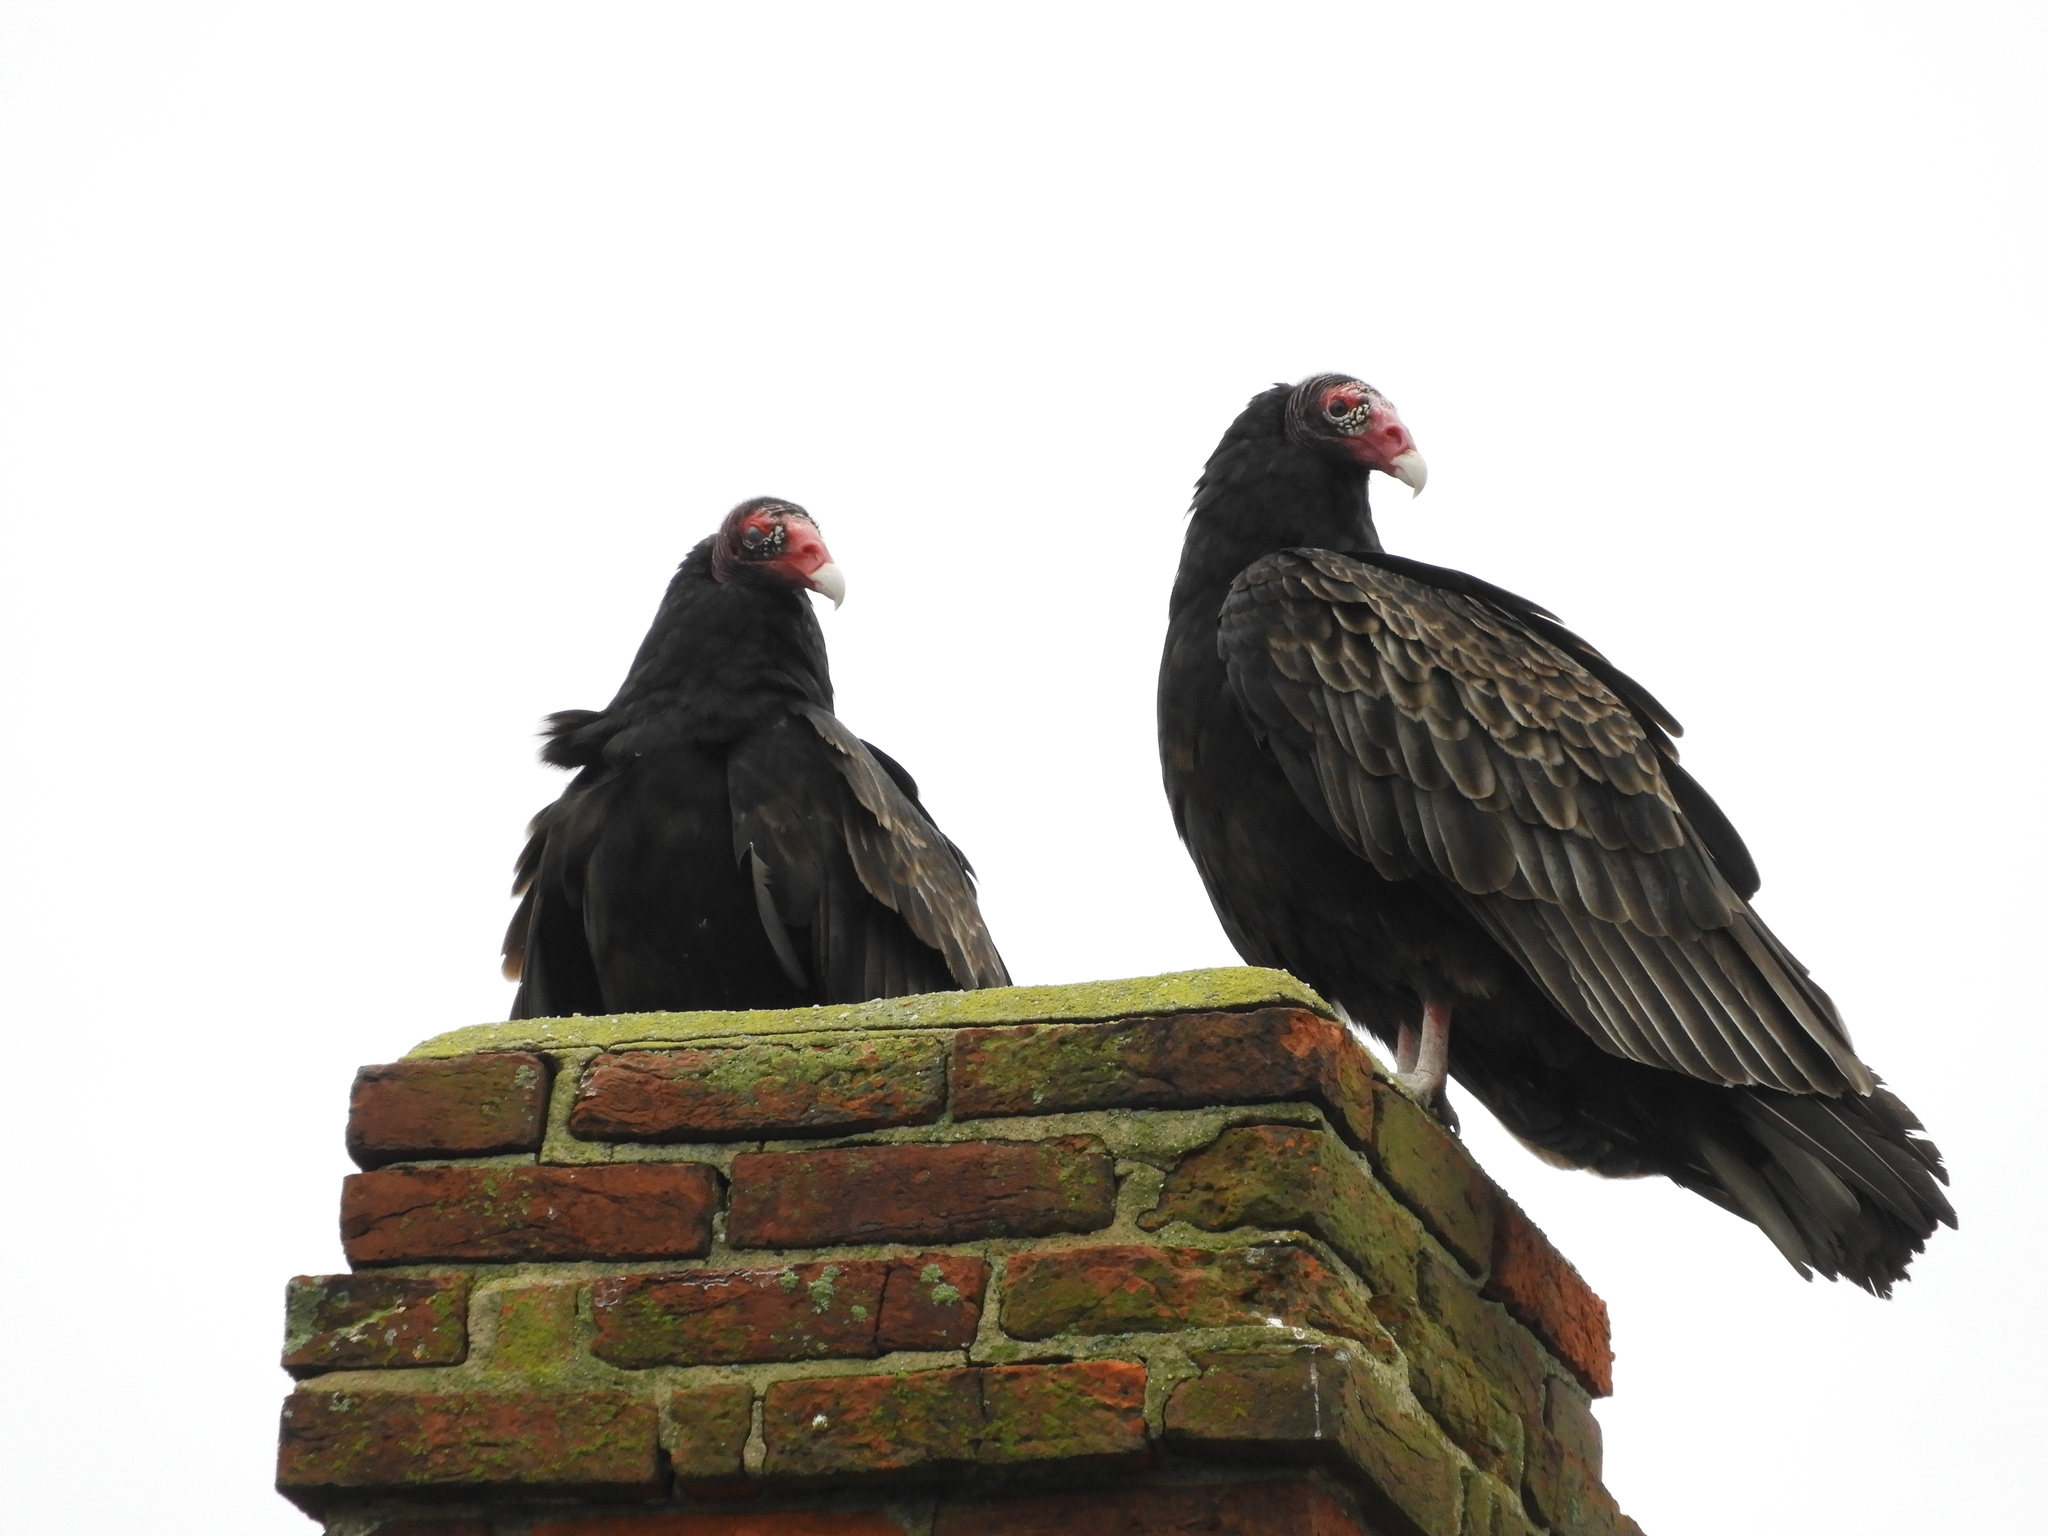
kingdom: Animalia
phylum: Chordata
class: Aves
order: Accipitriformes
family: Cathartidae
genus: Cathartes
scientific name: Cathartes aura
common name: Turkey vulture
